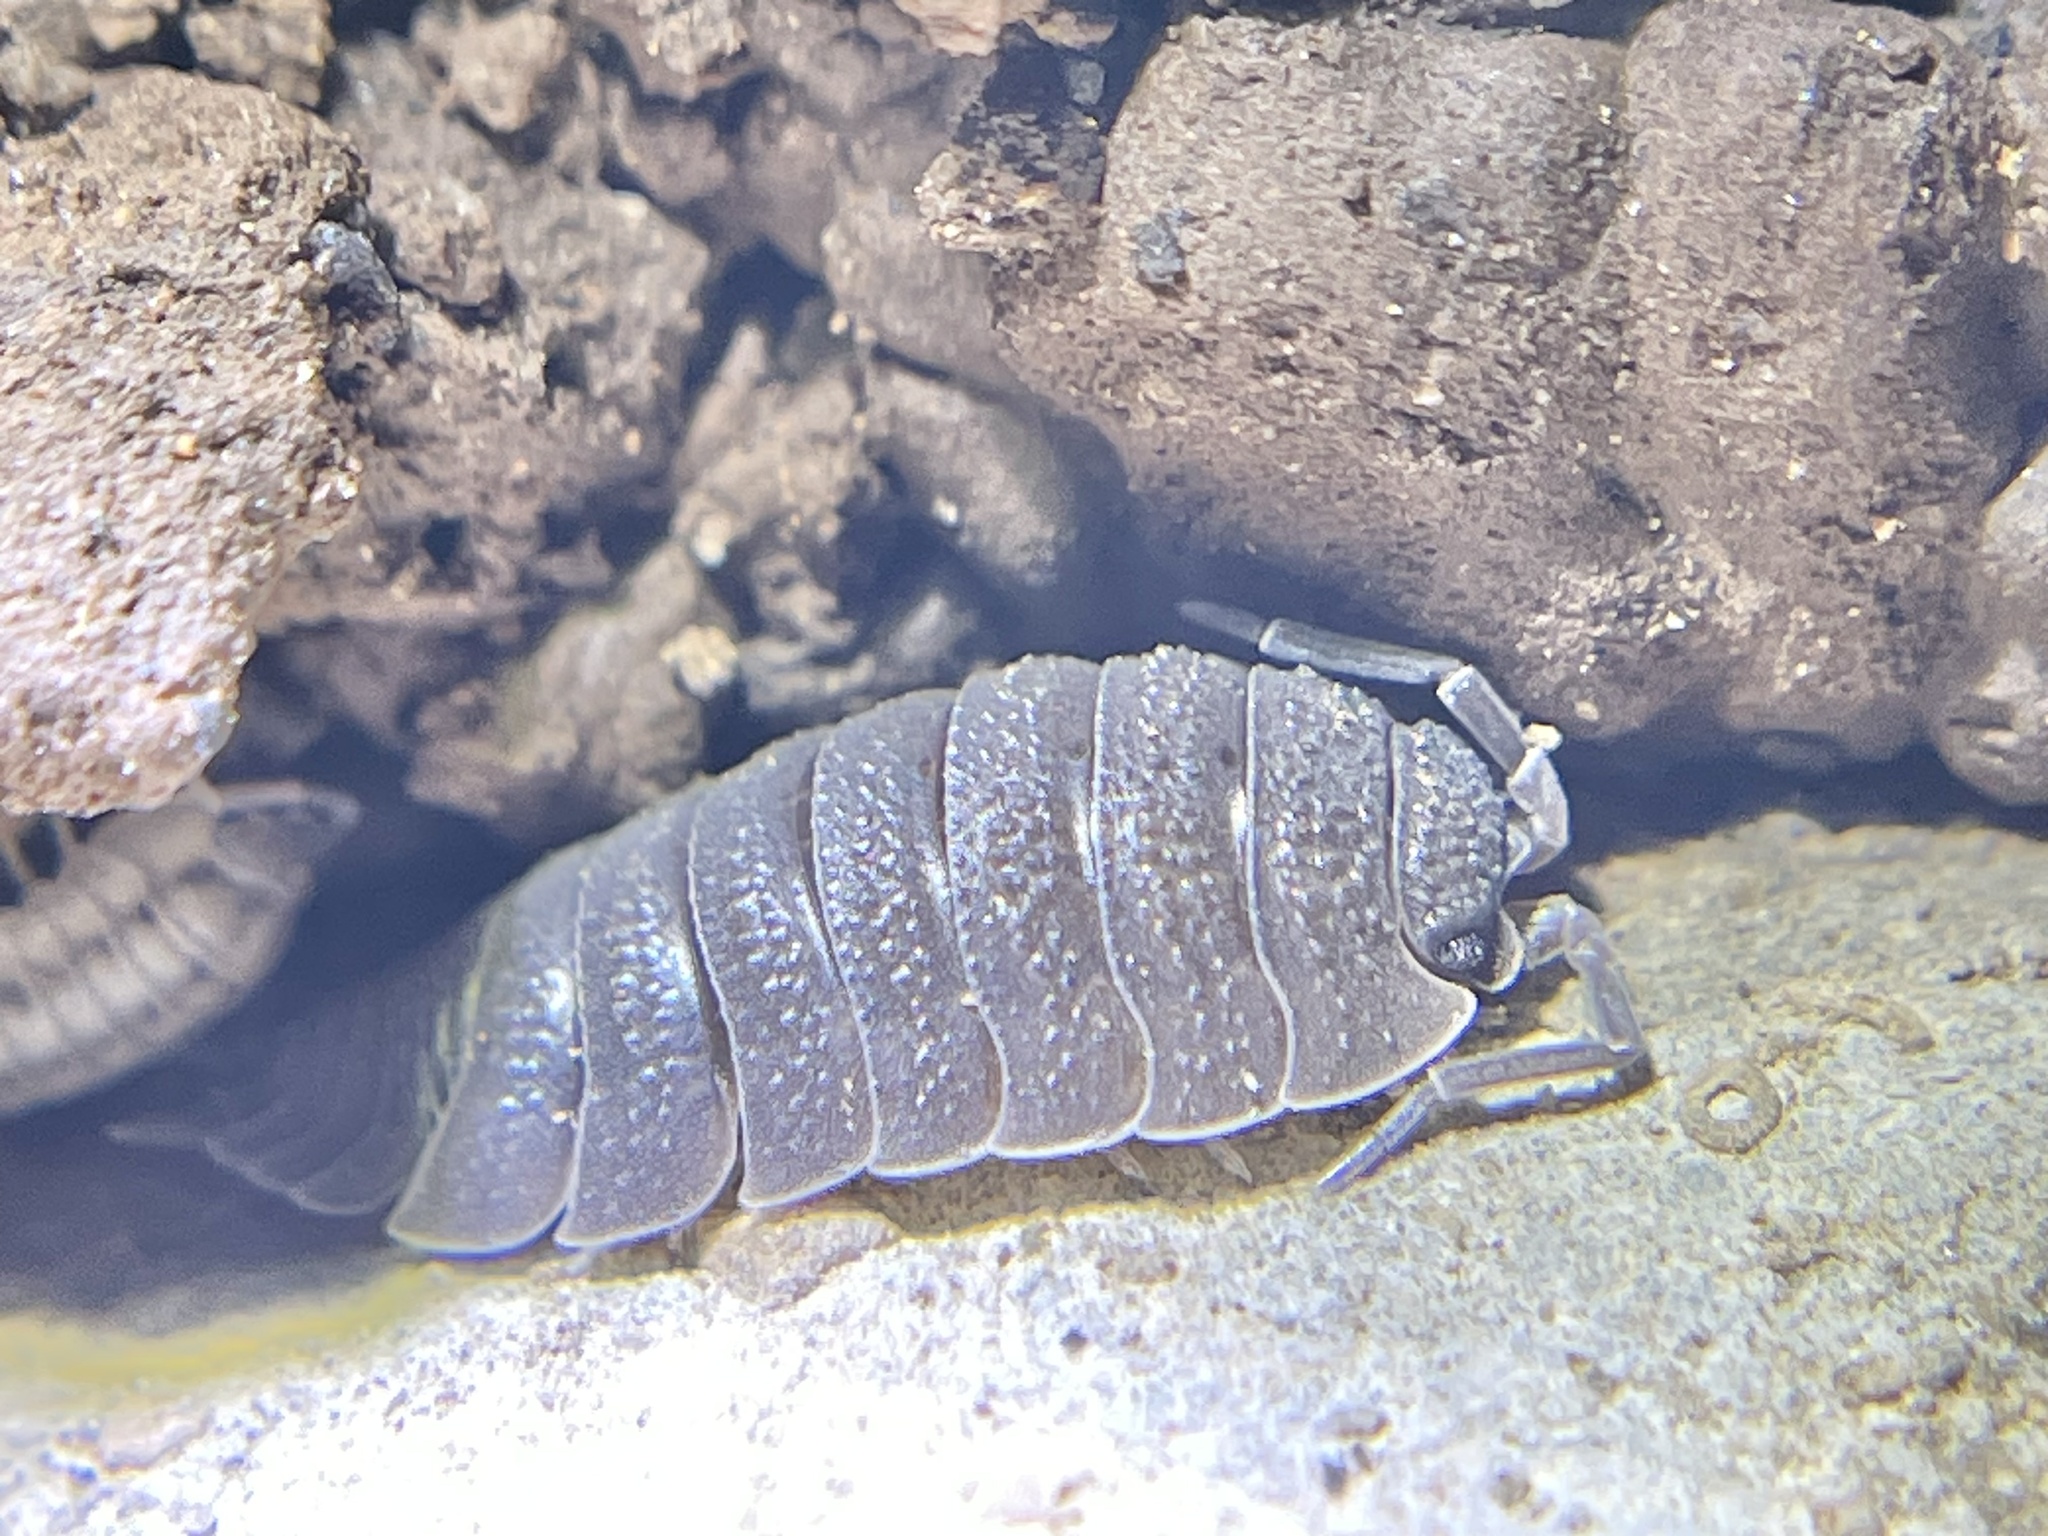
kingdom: Animalia
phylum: Arthropoda
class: Malacostraca
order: Isopoda
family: Porcellionidae
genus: Porcellio
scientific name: Porcellio scaber
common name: Common rough woodlouse
